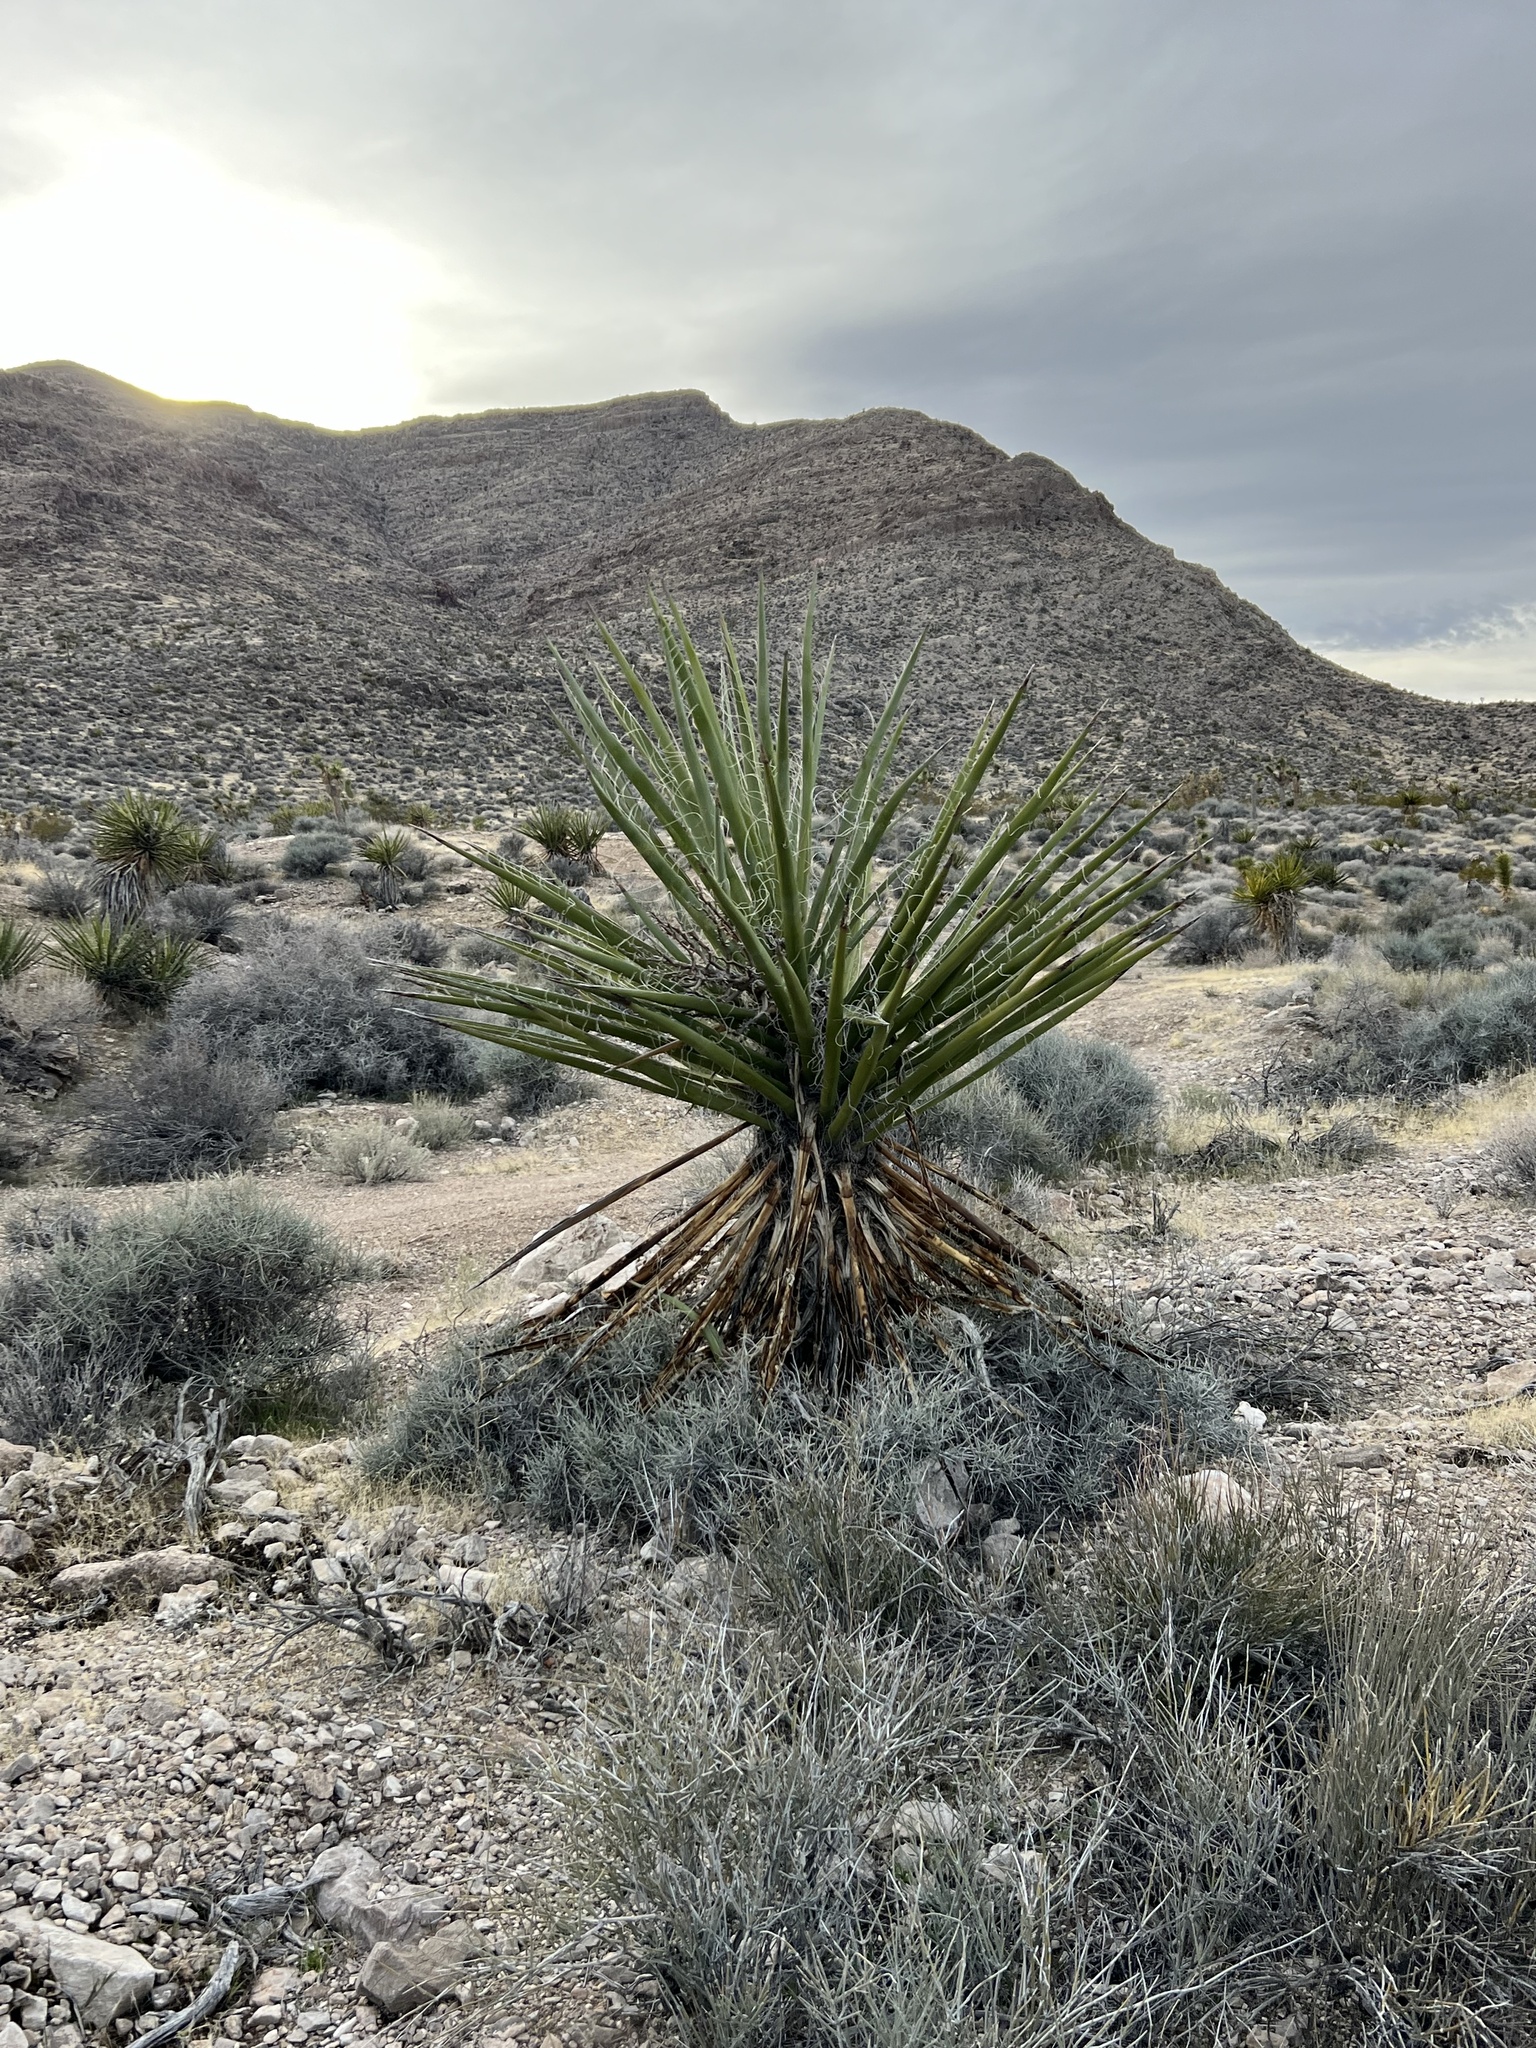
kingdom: Plantae
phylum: Tracheophyta
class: Liliopsida
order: Asparagales
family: Asparagaceae
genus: Yucca
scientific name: Yucca schidigera
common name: Mojave yucca
